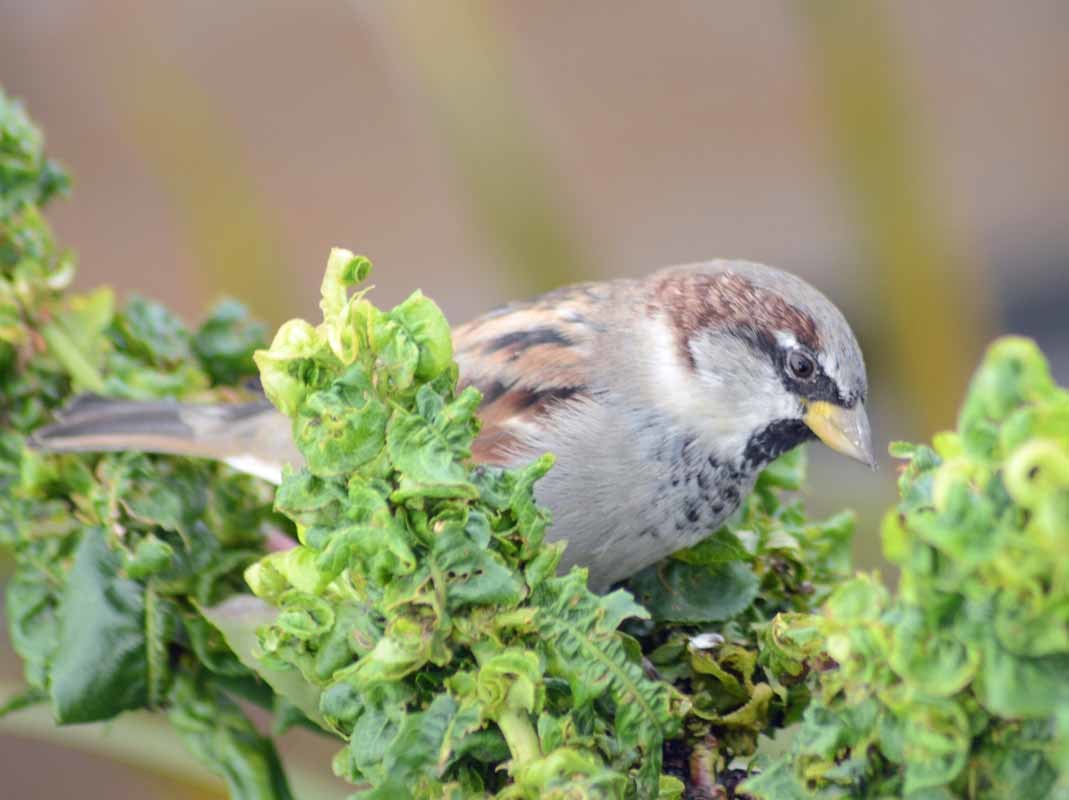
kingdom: Animalia
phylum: Chordata
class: Aves
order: Passeriformes
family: Passeridae
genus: Passer
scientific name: Passer domesticus
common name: House sparrow
